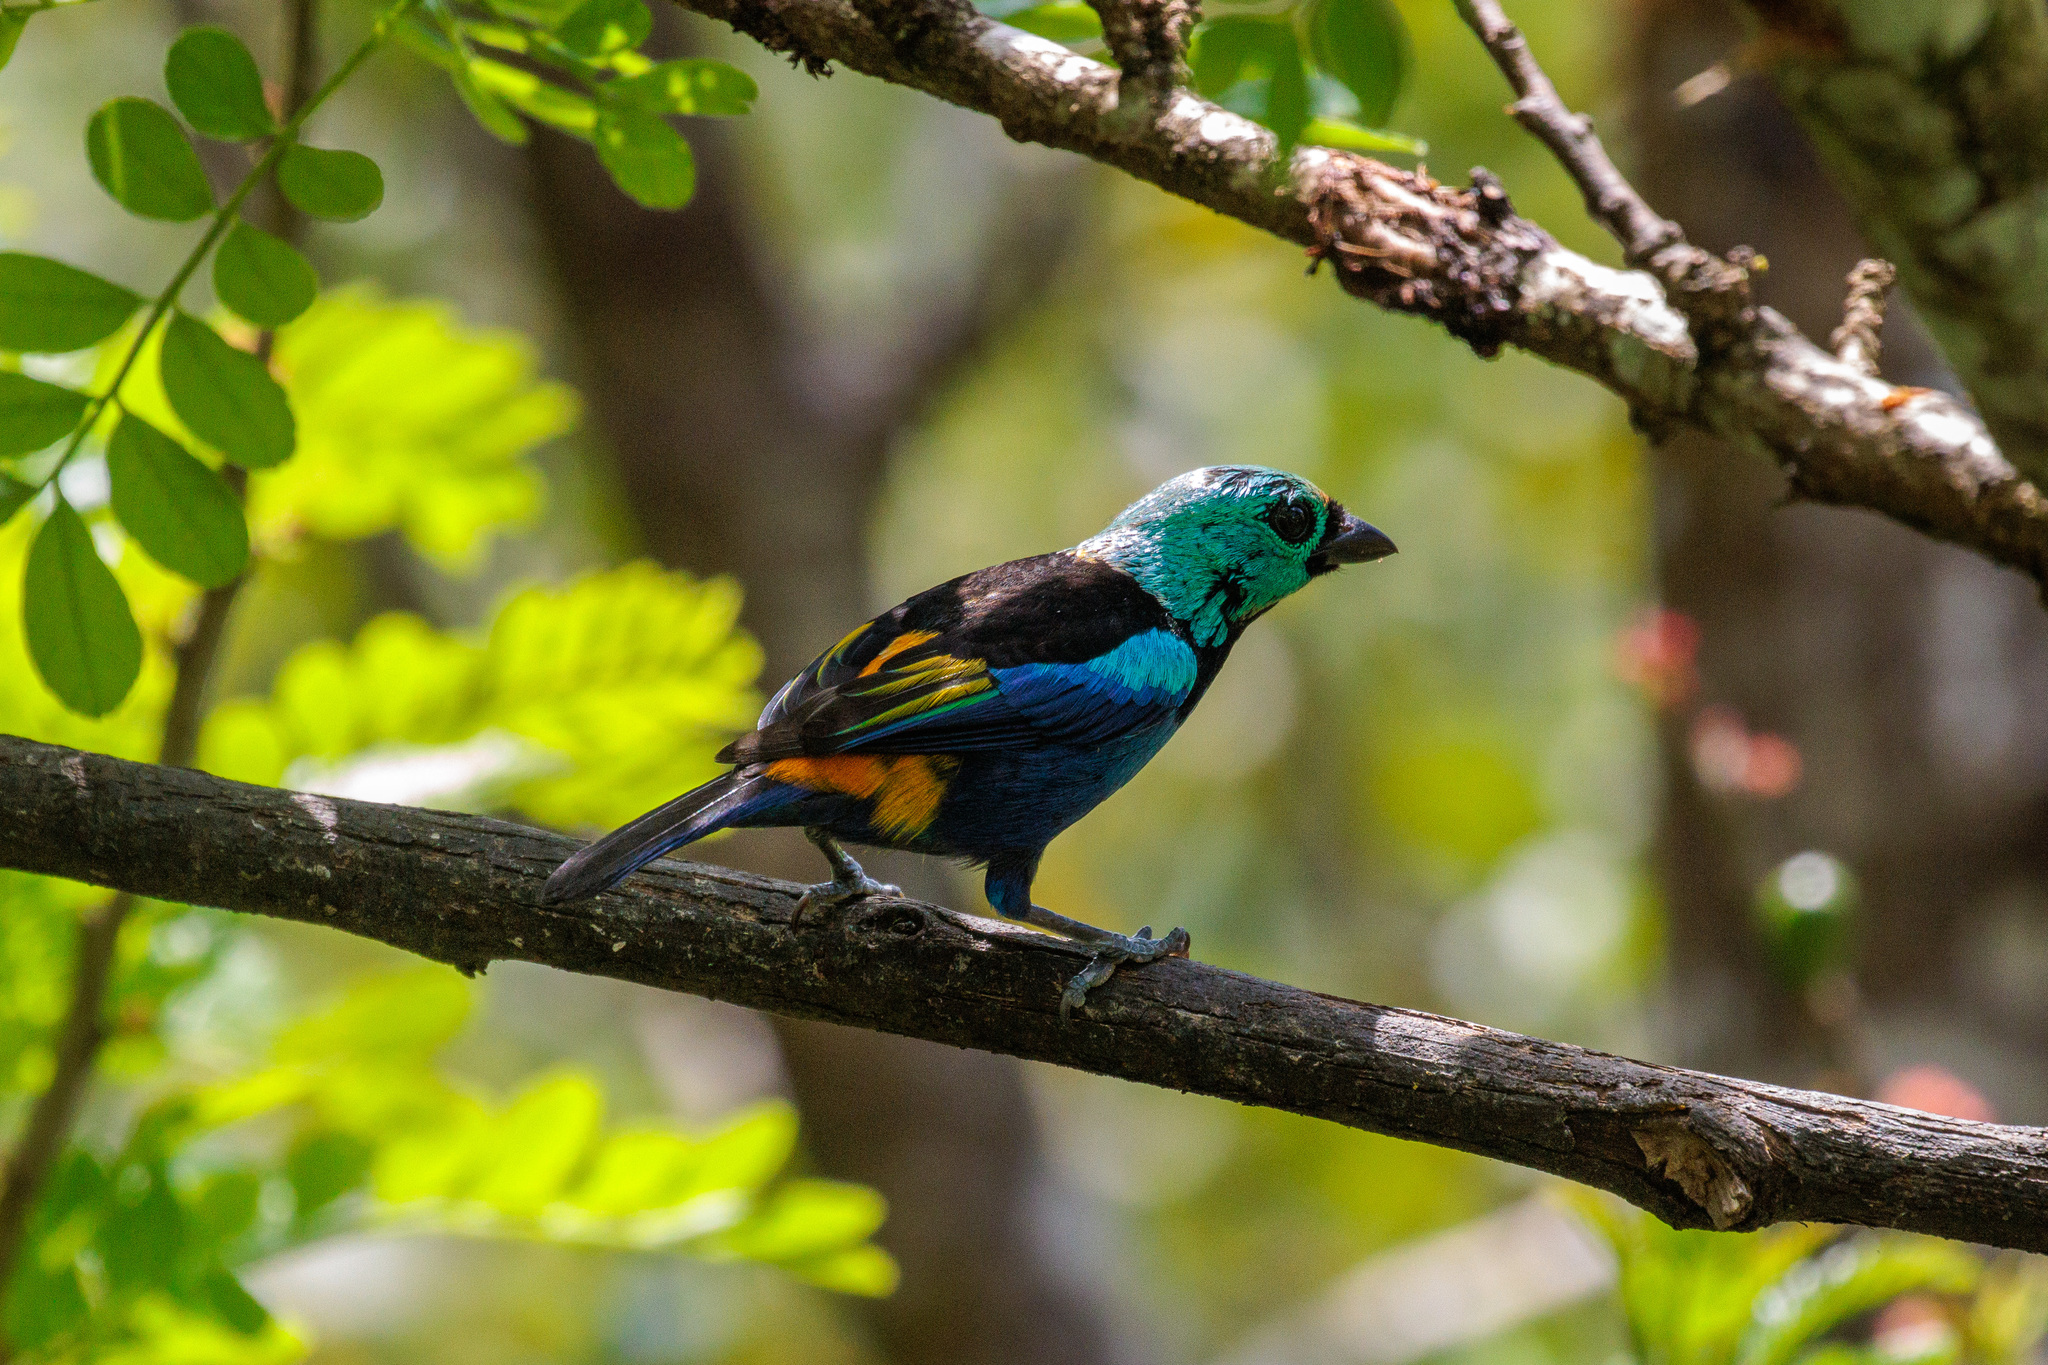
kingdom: Animalia
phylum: Chordata
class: Aves
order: Passeriformes
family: Thraupidae
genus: Tangara
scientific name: Tangara fastuosa
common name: Seven-colored tanager
